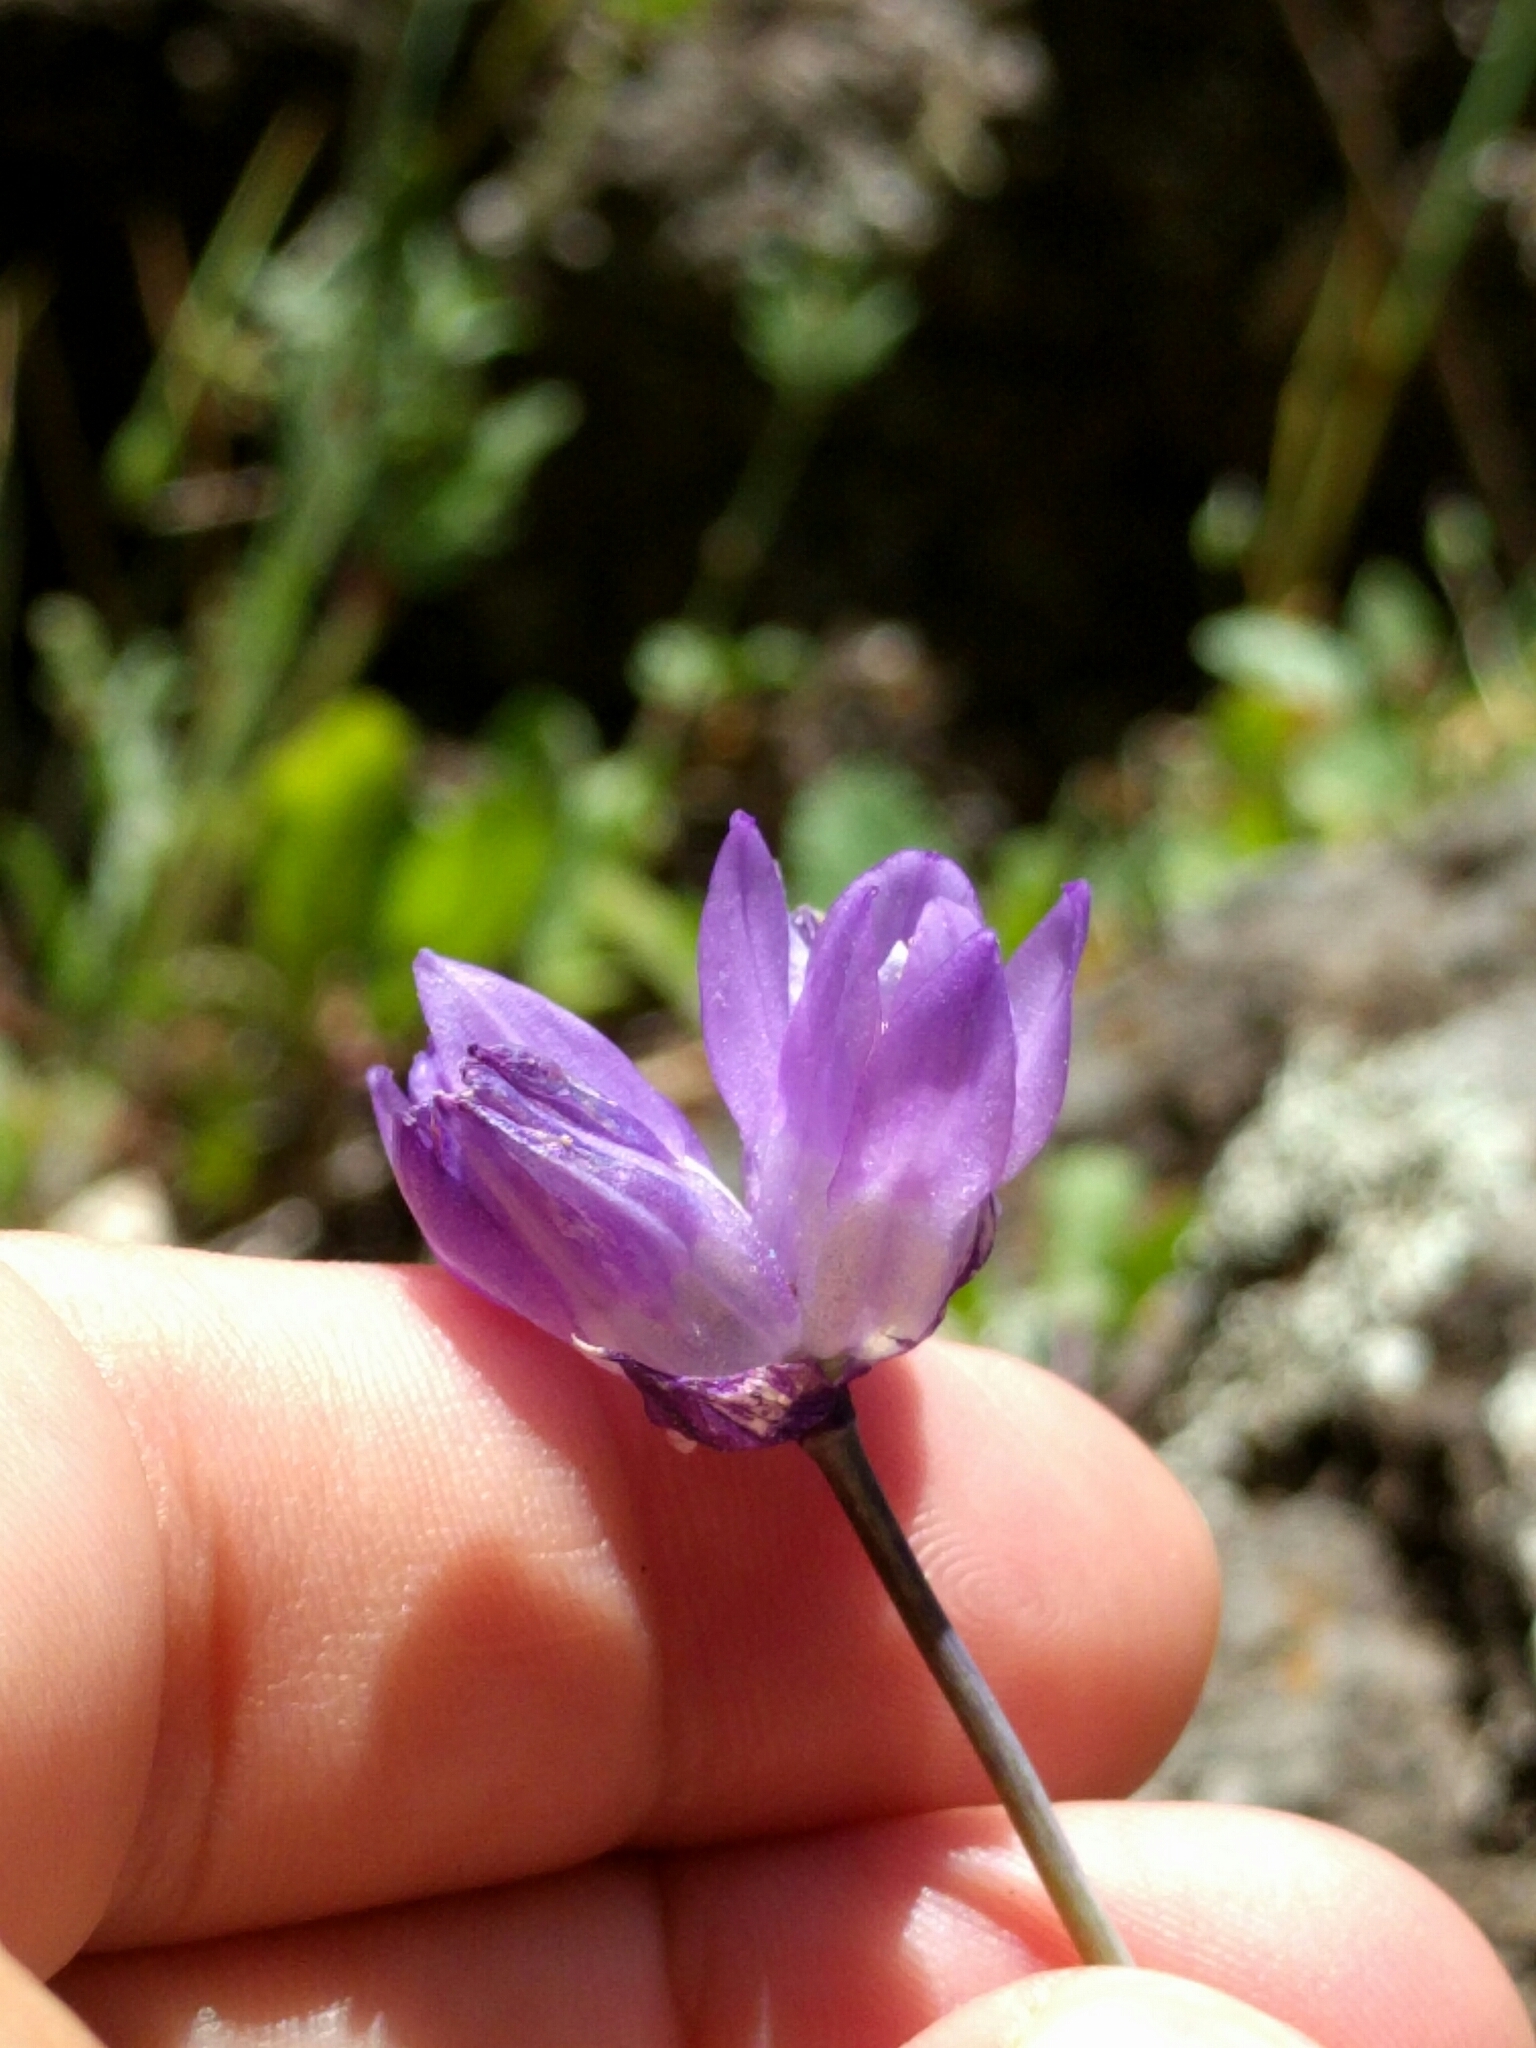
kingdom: Plantae
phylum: Tracheophyta
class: Liliopsida
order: Asparagales
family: Asparagaceae
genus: Dipterostemon
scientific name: Dipterostemon capitatus
